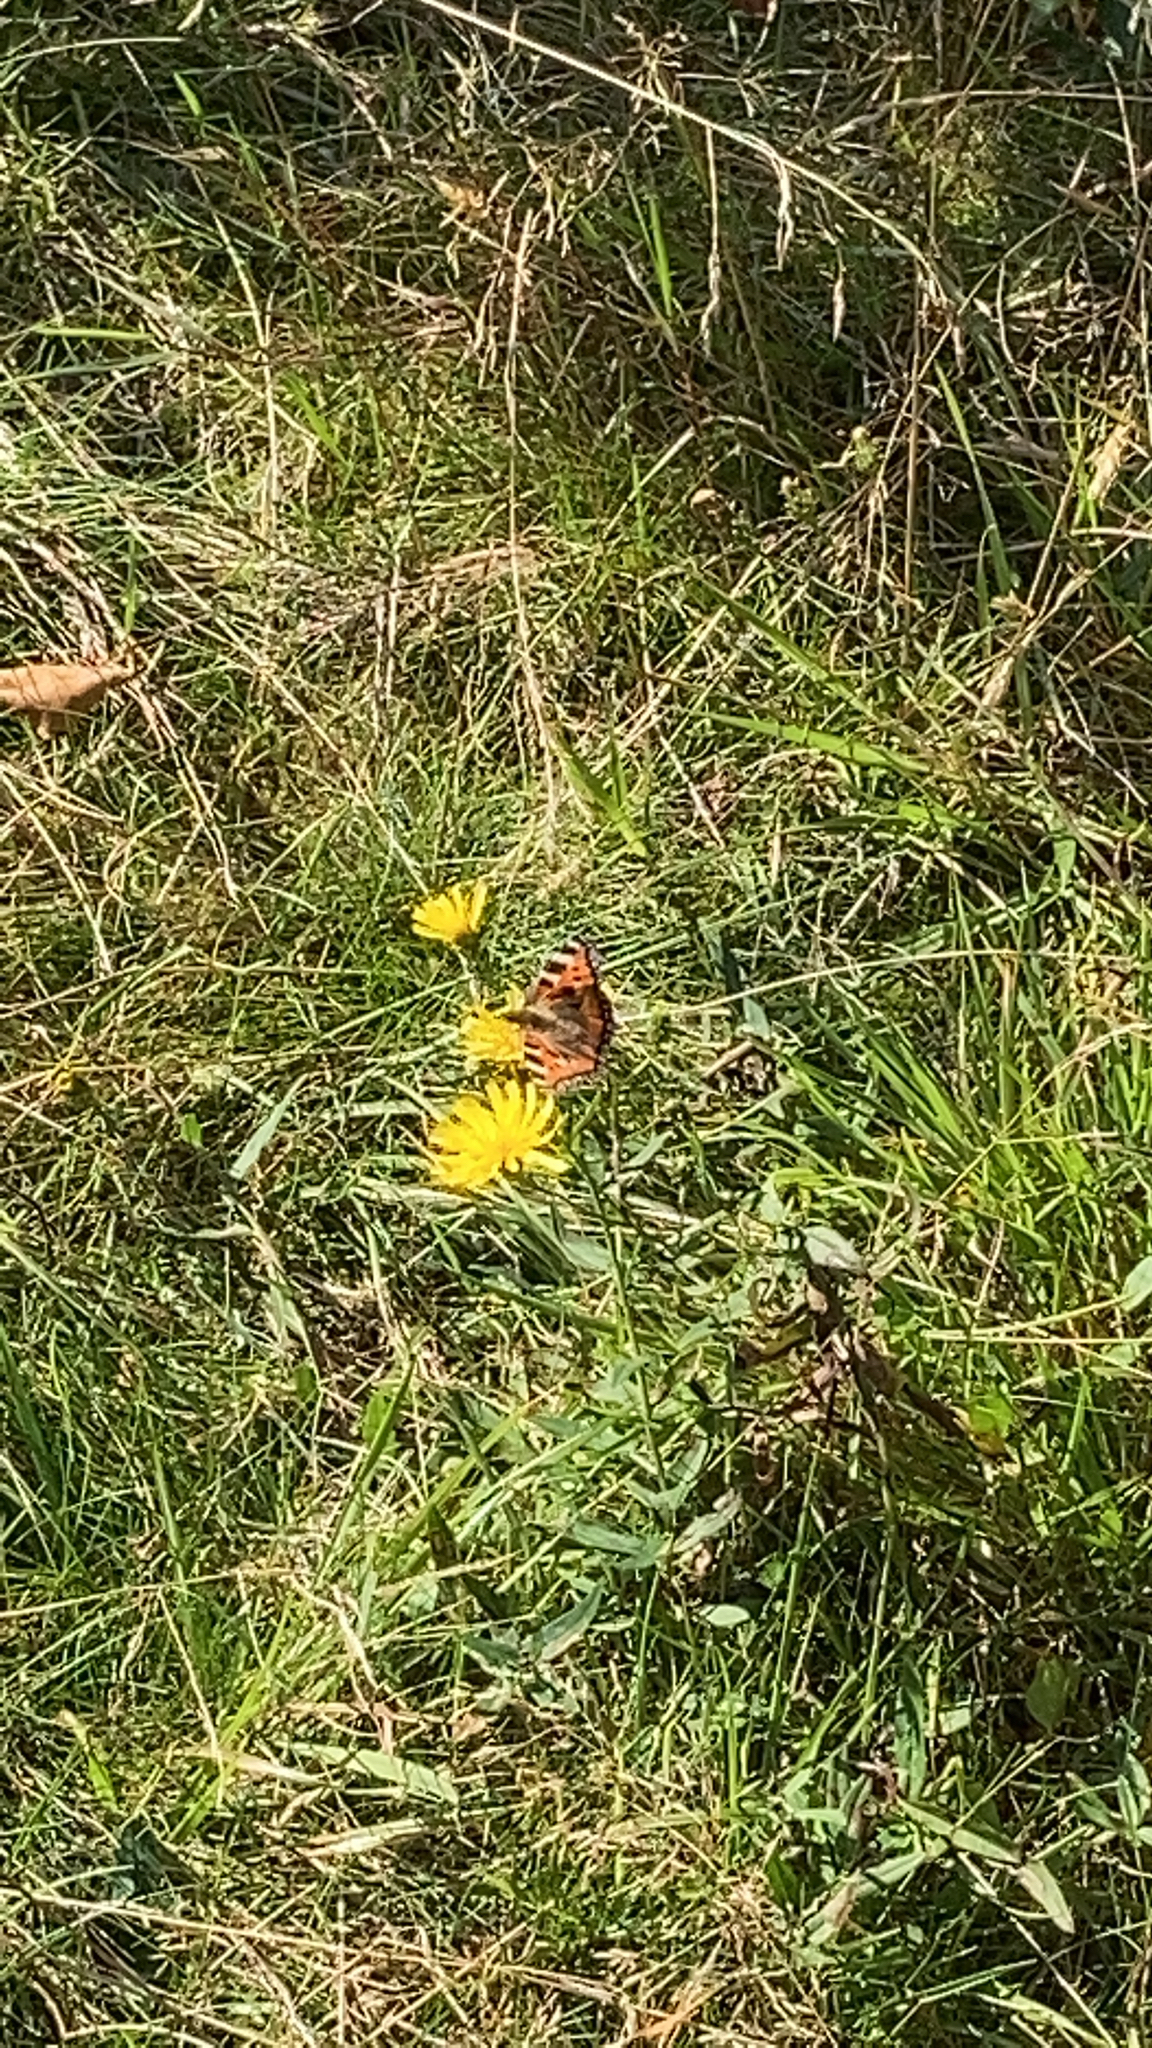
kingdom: Animalia
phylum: Arthropoda
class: Insecta
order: Lepidoptera
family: Nymphalidae
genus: Aglais
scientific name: Aglais urticae
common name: Small tortoiseshell
